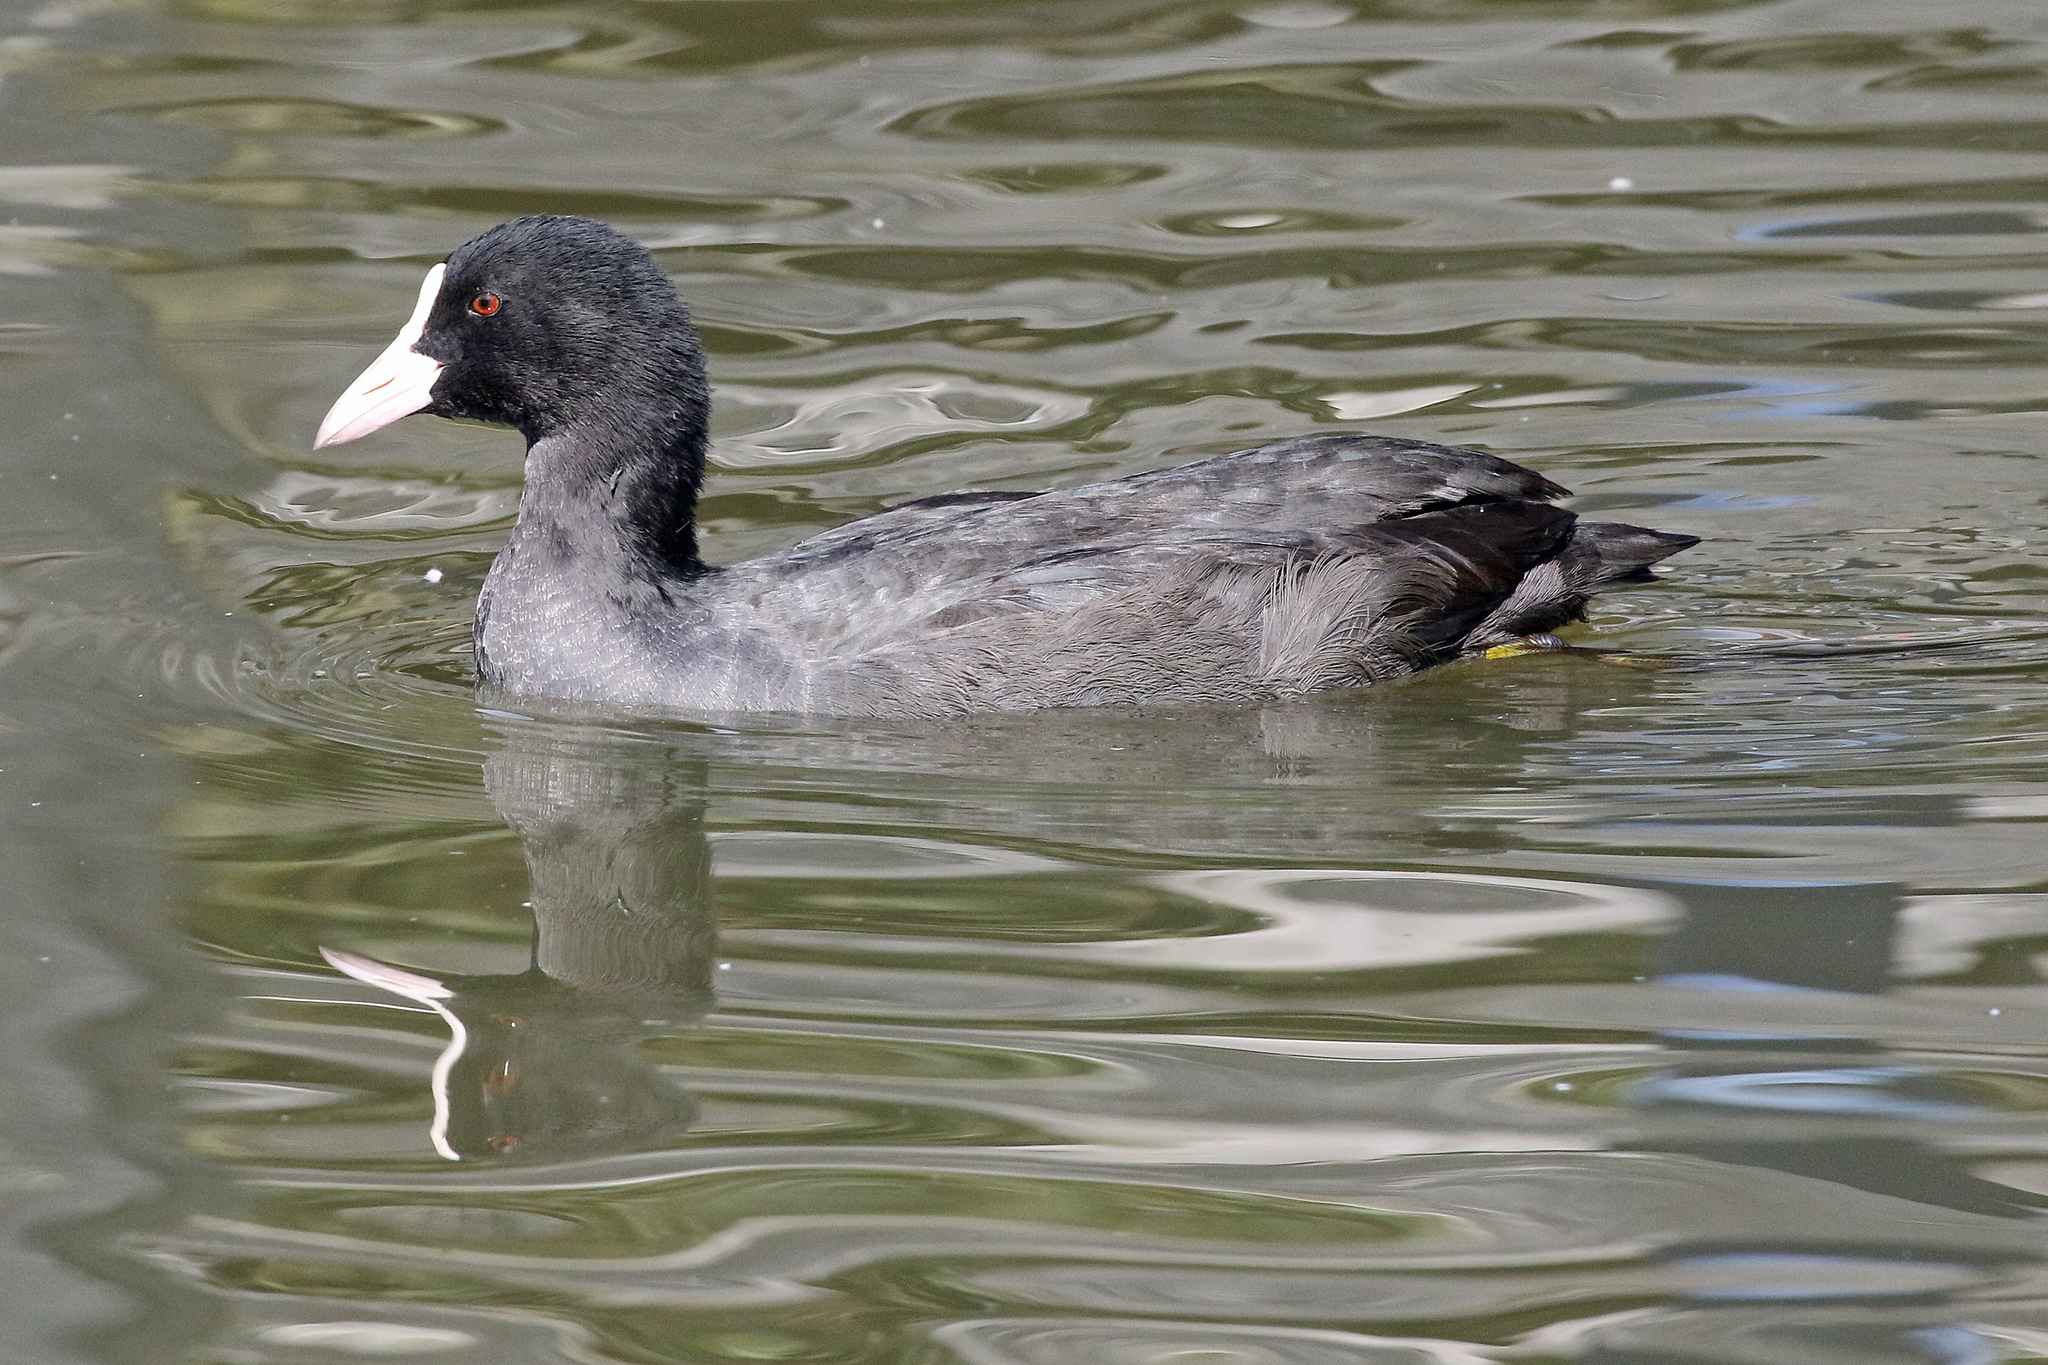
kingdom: Animalia
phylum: Chordata
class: Aves
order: Gruiformes
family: Rallidae
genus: Fulica
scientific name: Fulica atra
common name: Eurasian coot
